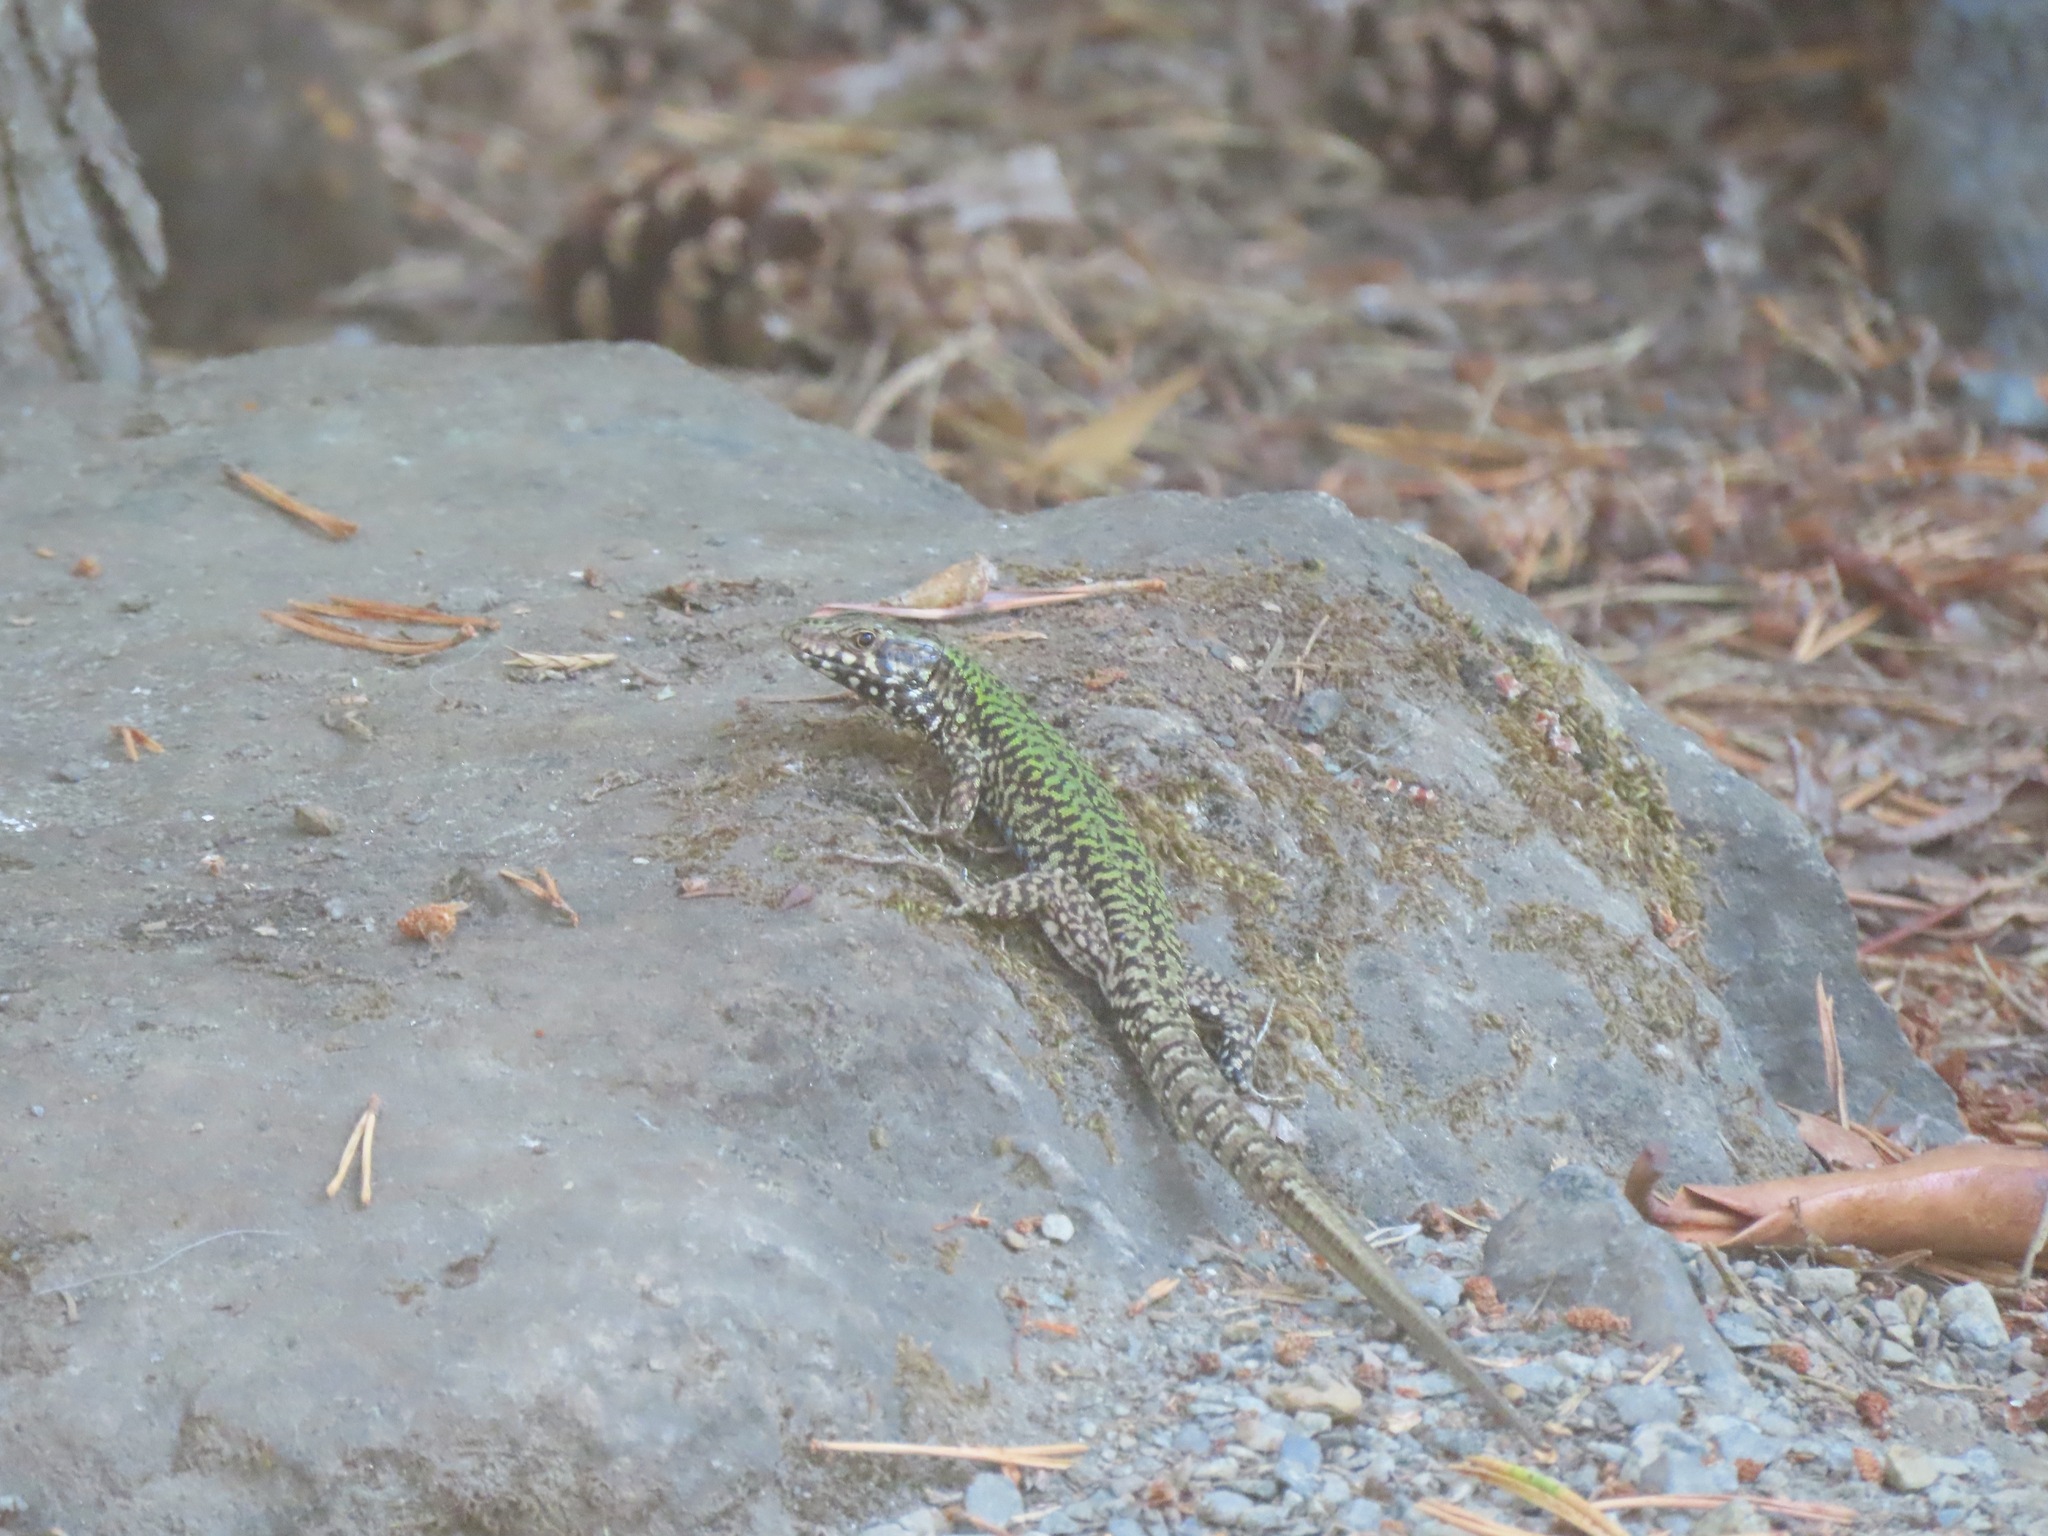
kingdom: Animalia
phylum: Chordata
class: Squamata
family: Lacertidae
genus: Podarcis
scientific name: Podarcis muralis
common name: Common wall lizard
